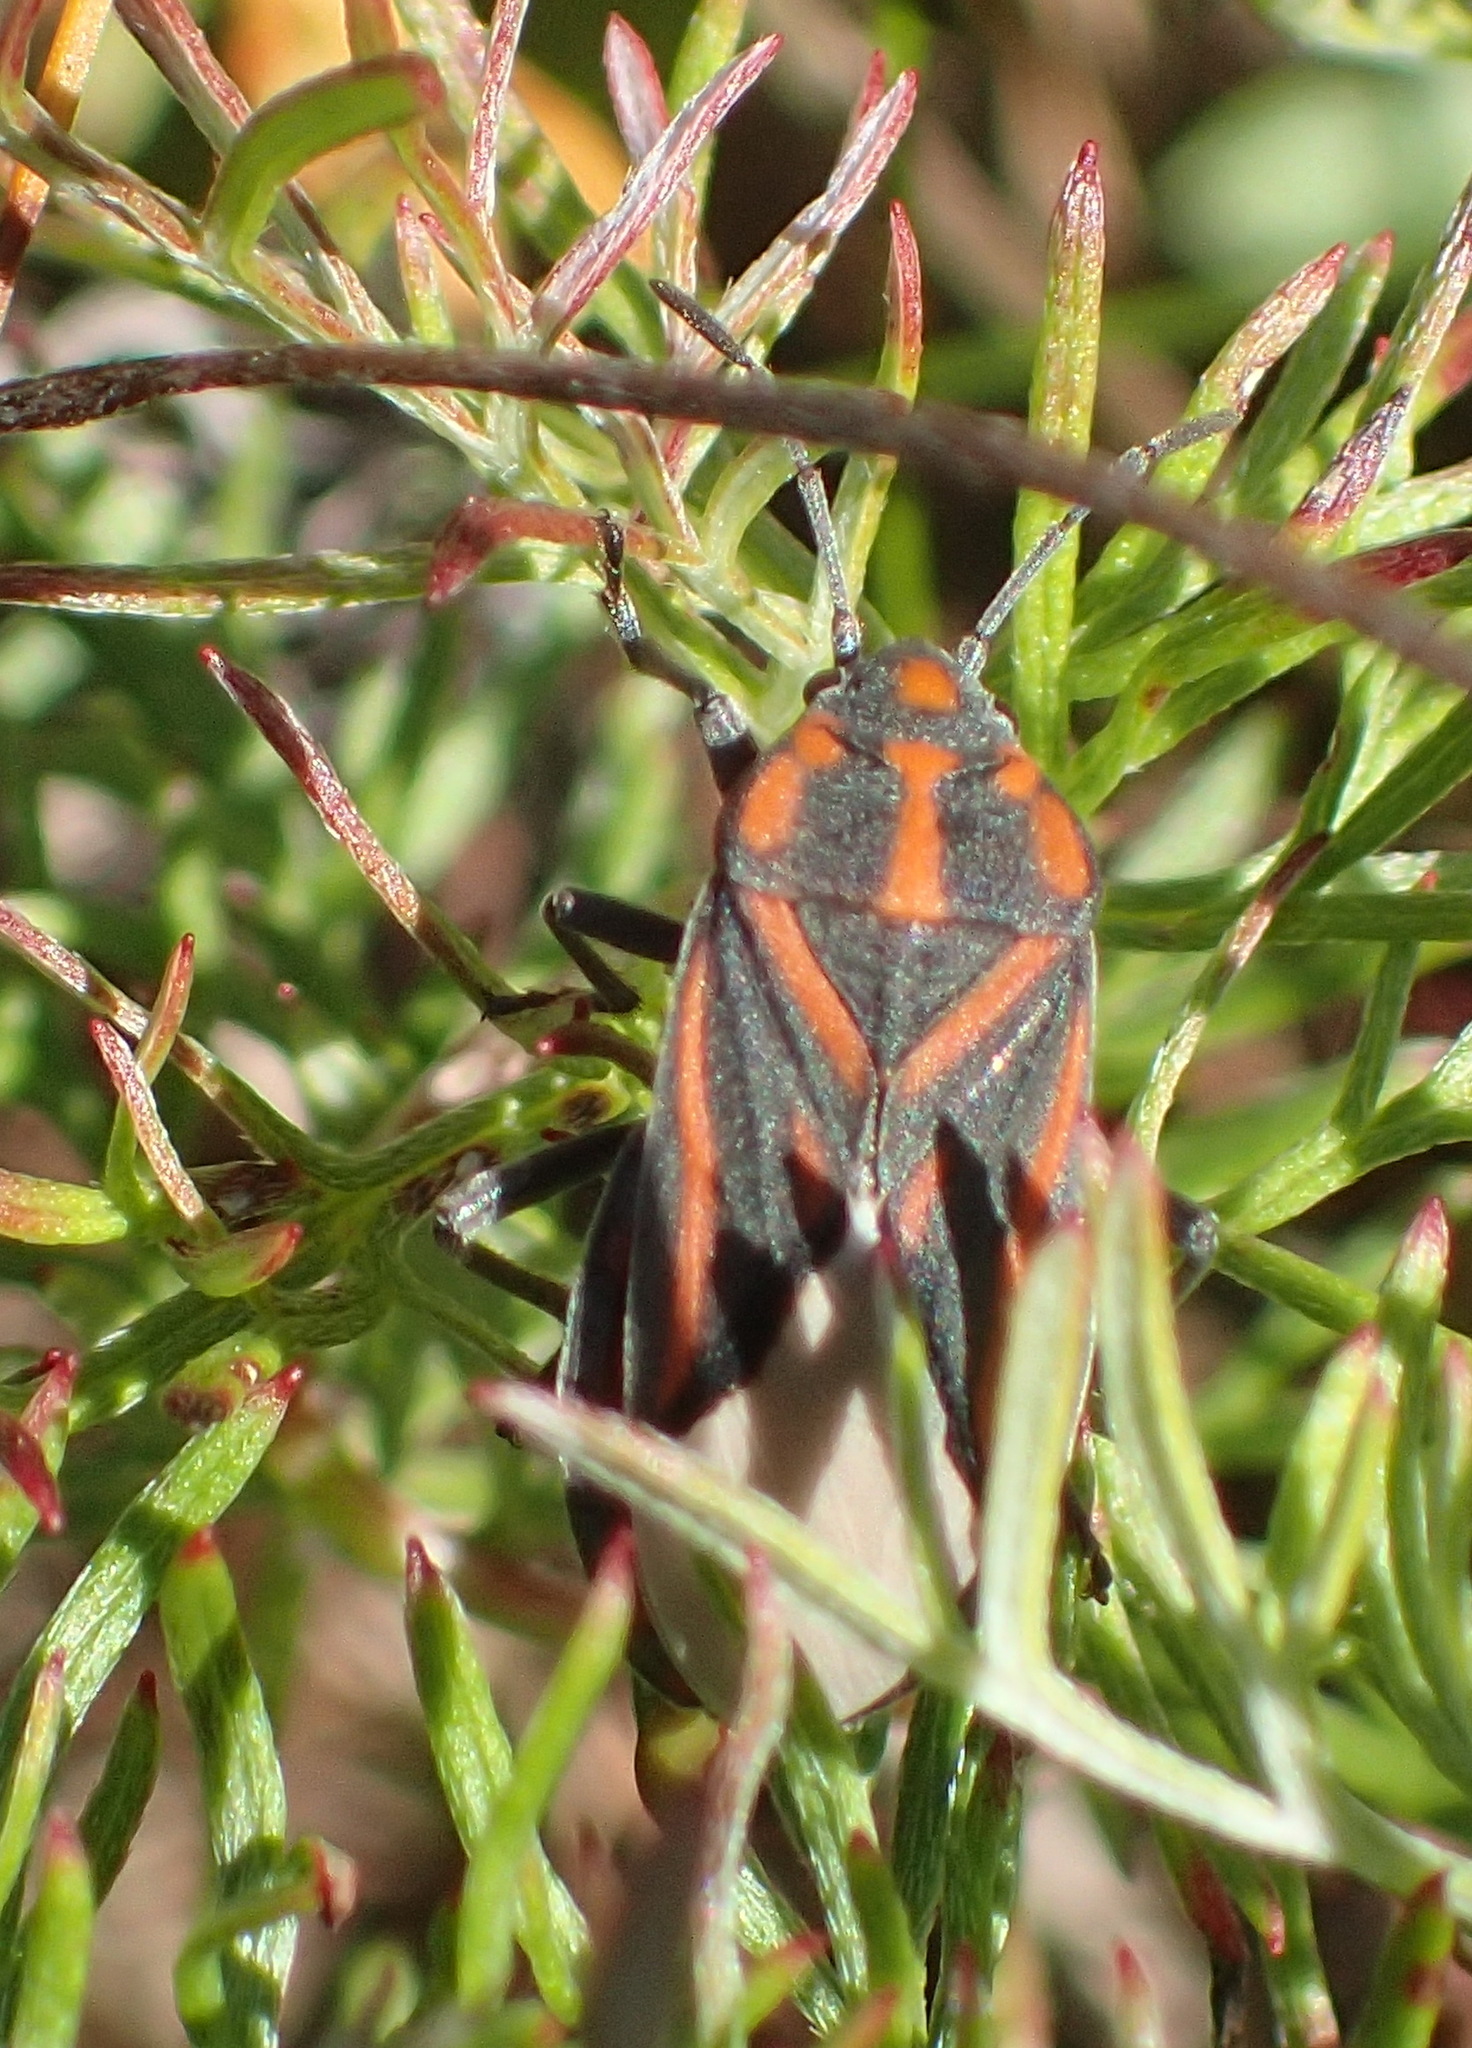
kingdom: Animalia
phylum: Arthropoda
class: Insecta
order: Hemiptera
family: Lygaeidae
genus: Spilostethus
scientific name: Spilostethus trilineatus
